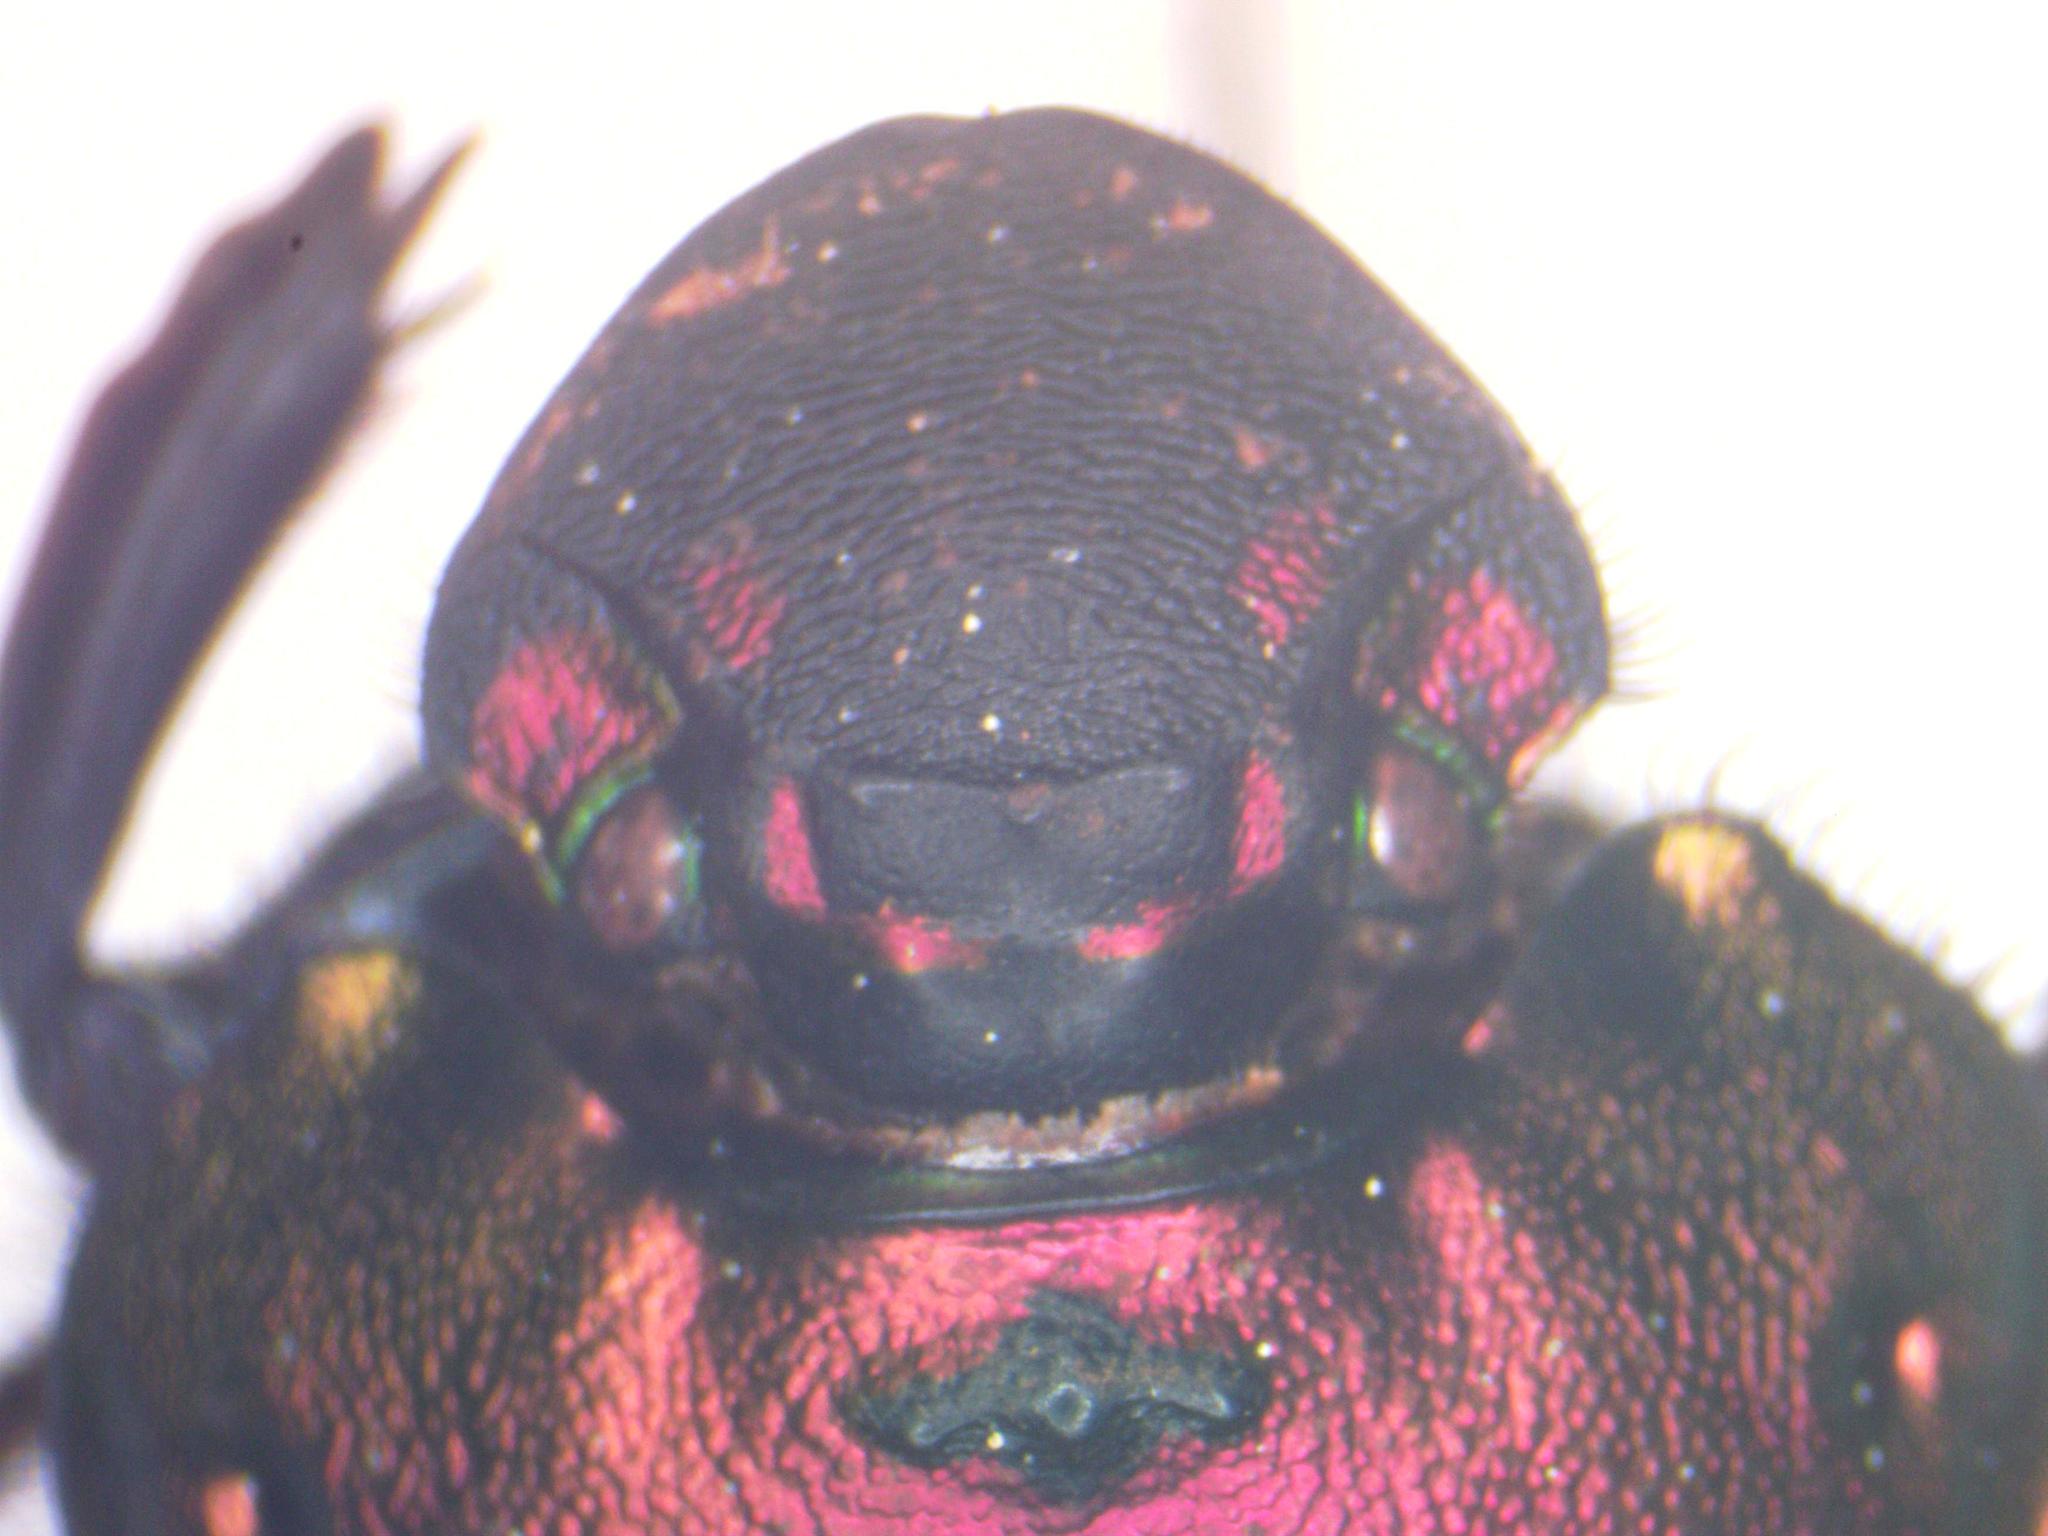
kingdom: Animalia
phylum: Arthropoda
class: Insecta
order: Coleoptera
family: Scarabaeidae
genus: Phanaeus
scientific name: Phanaeus beltianus
